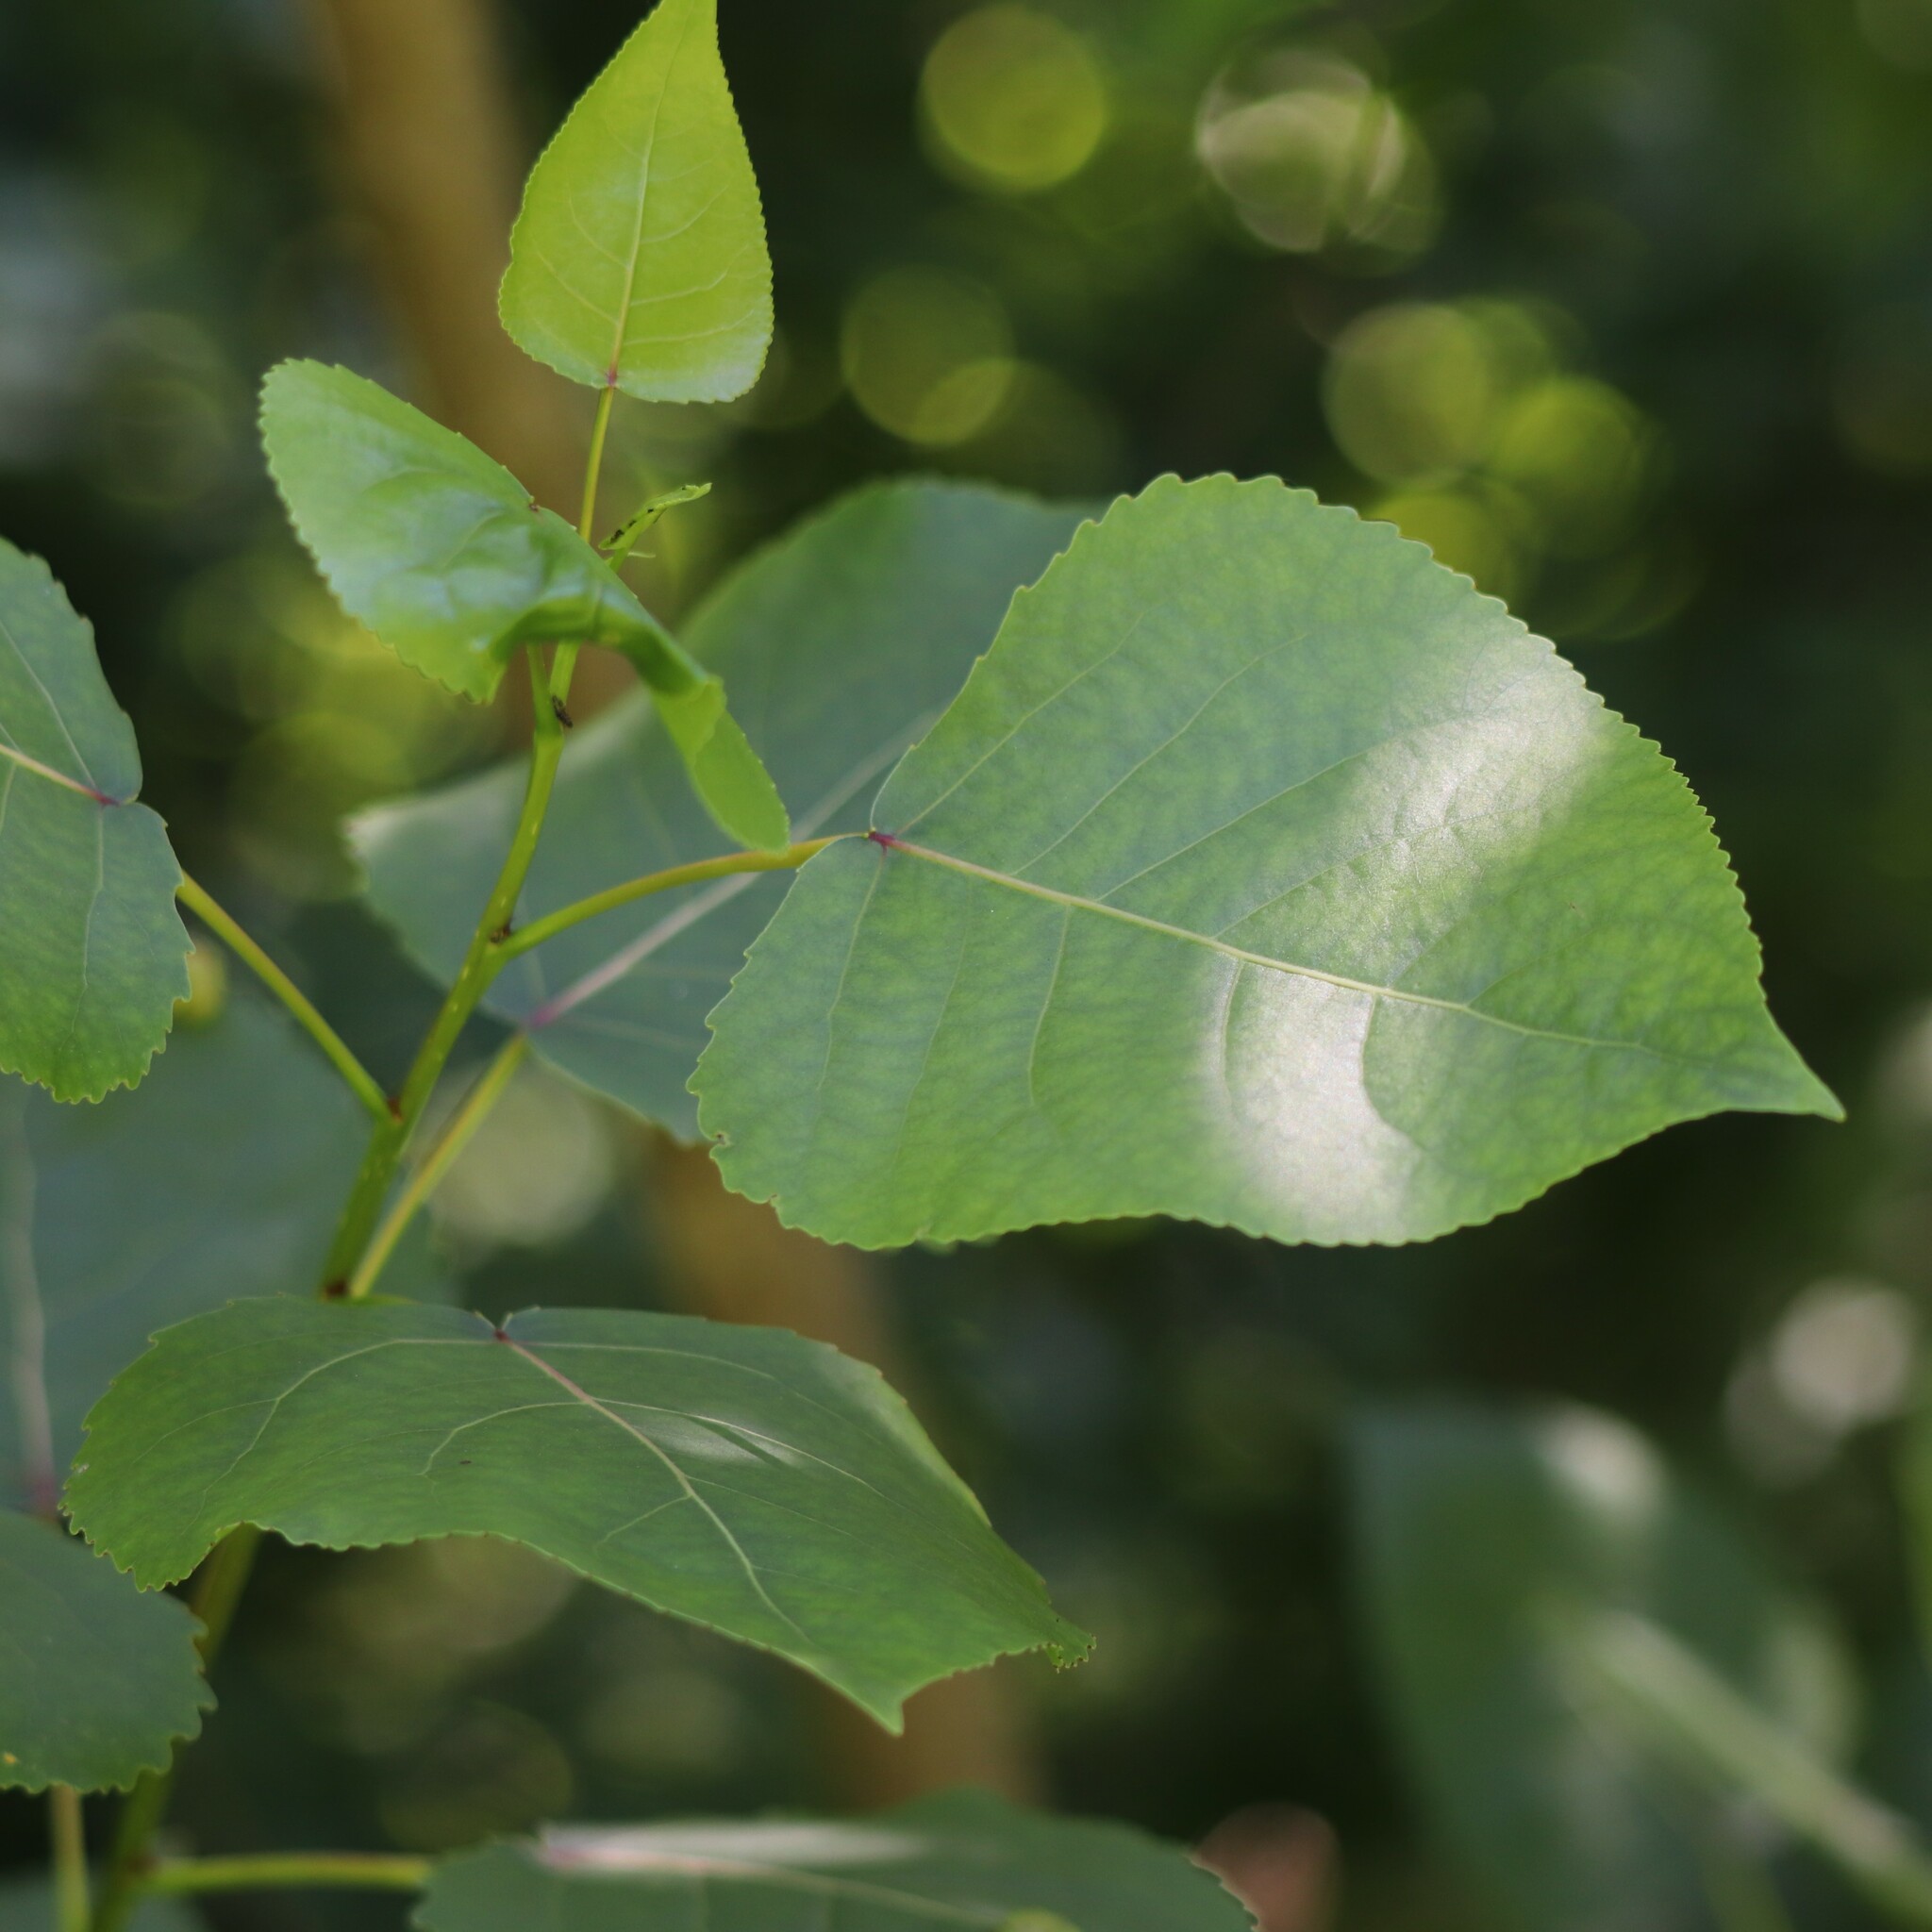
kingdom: Plantae
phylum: Tracheophyta
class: Magnoliopsida
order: Malpighiales
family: Salicaceae
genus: Populus
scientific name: Populus deltoides
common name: Eastern cottonwood
